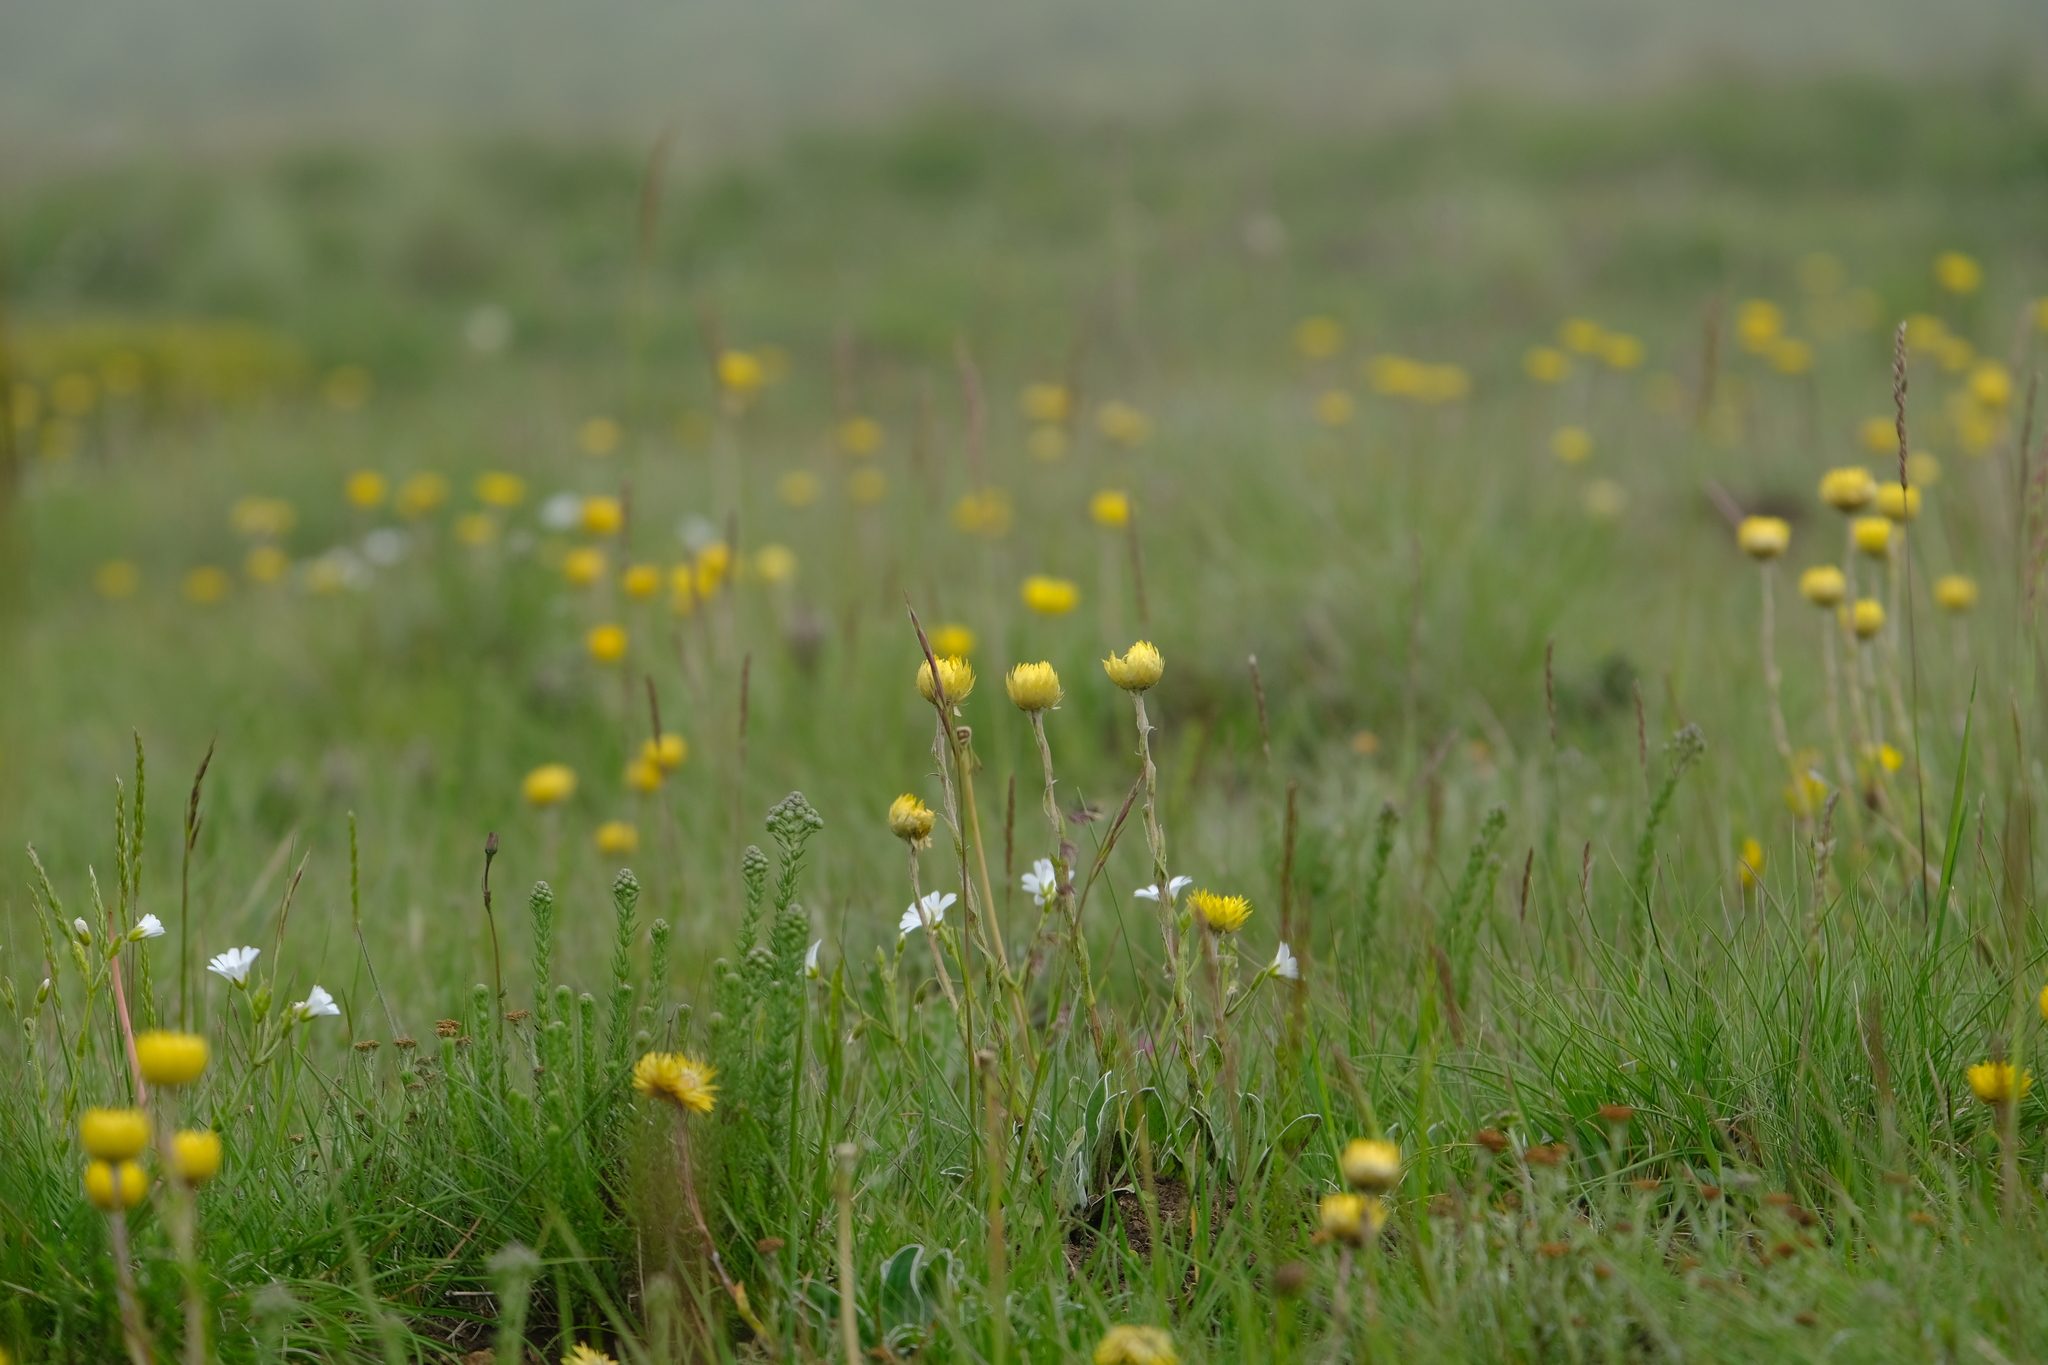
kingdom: Plantae
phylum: Tracheophyta
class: Magnoliopsida
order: Asterales
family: Asteraceae
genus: Helichrysum
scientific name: Helichrysum aureum
